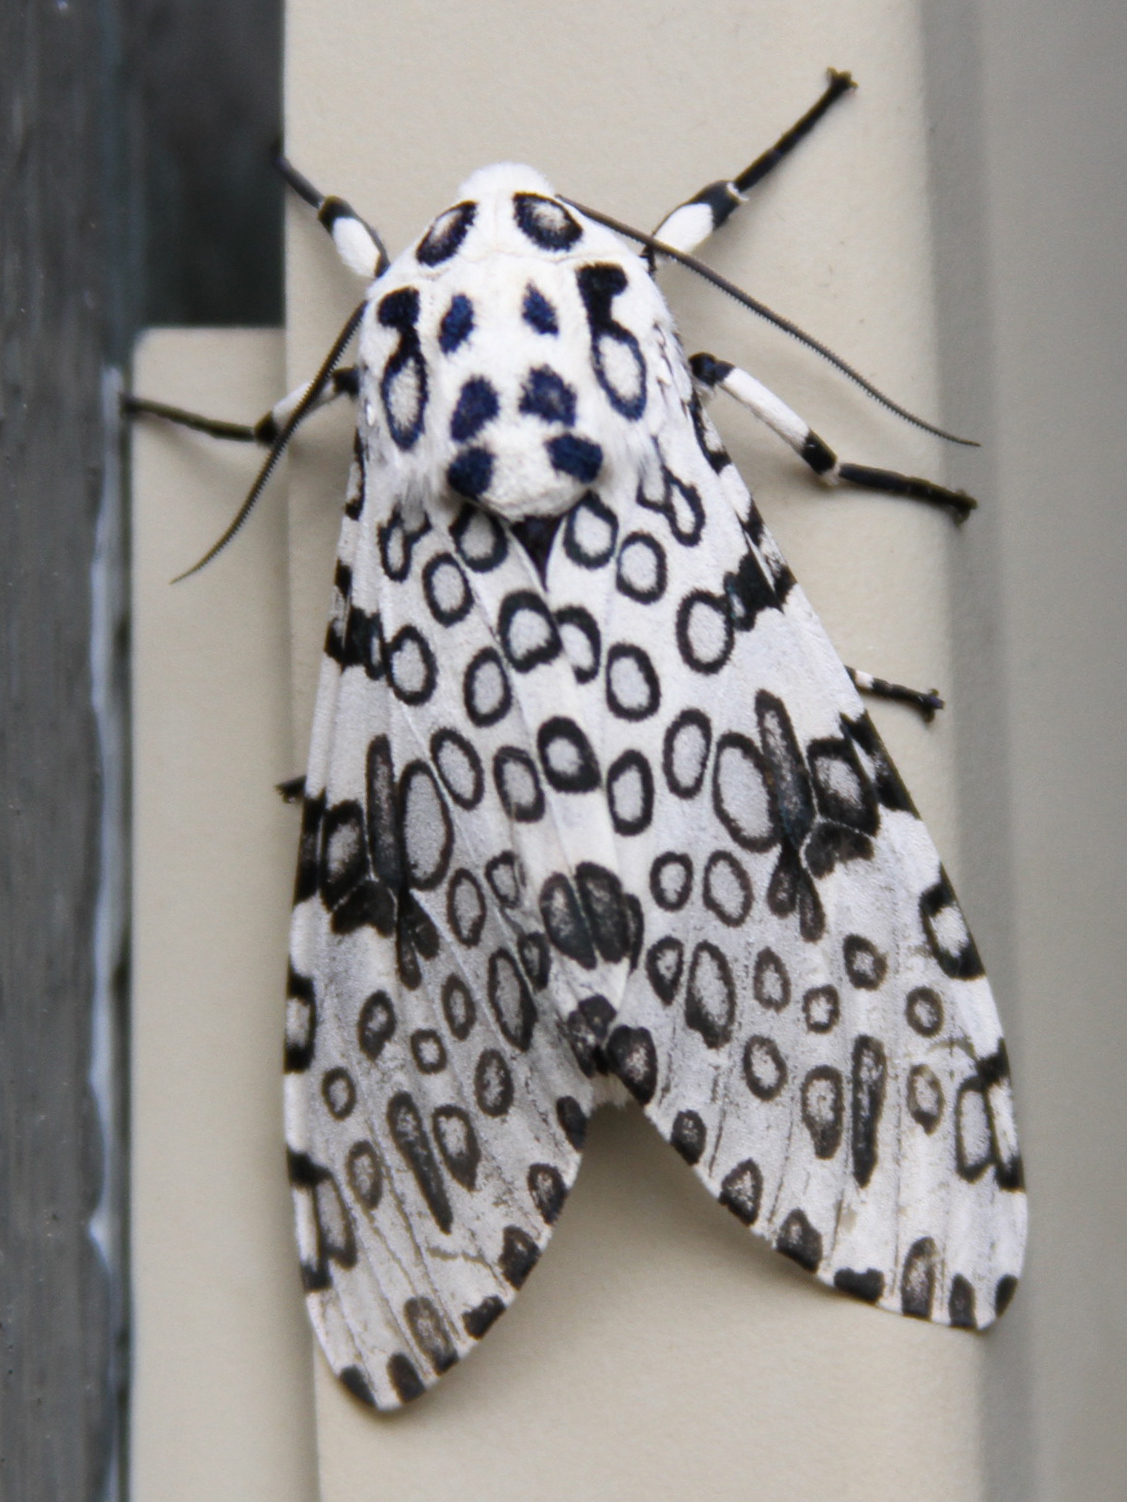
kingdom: Animalia
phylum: Arthropoda
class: Insecta
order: Lepidoptera
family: Erebidae
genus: Hypercompe
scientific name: Hypercompe scribonia
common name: Giant leopard moth
